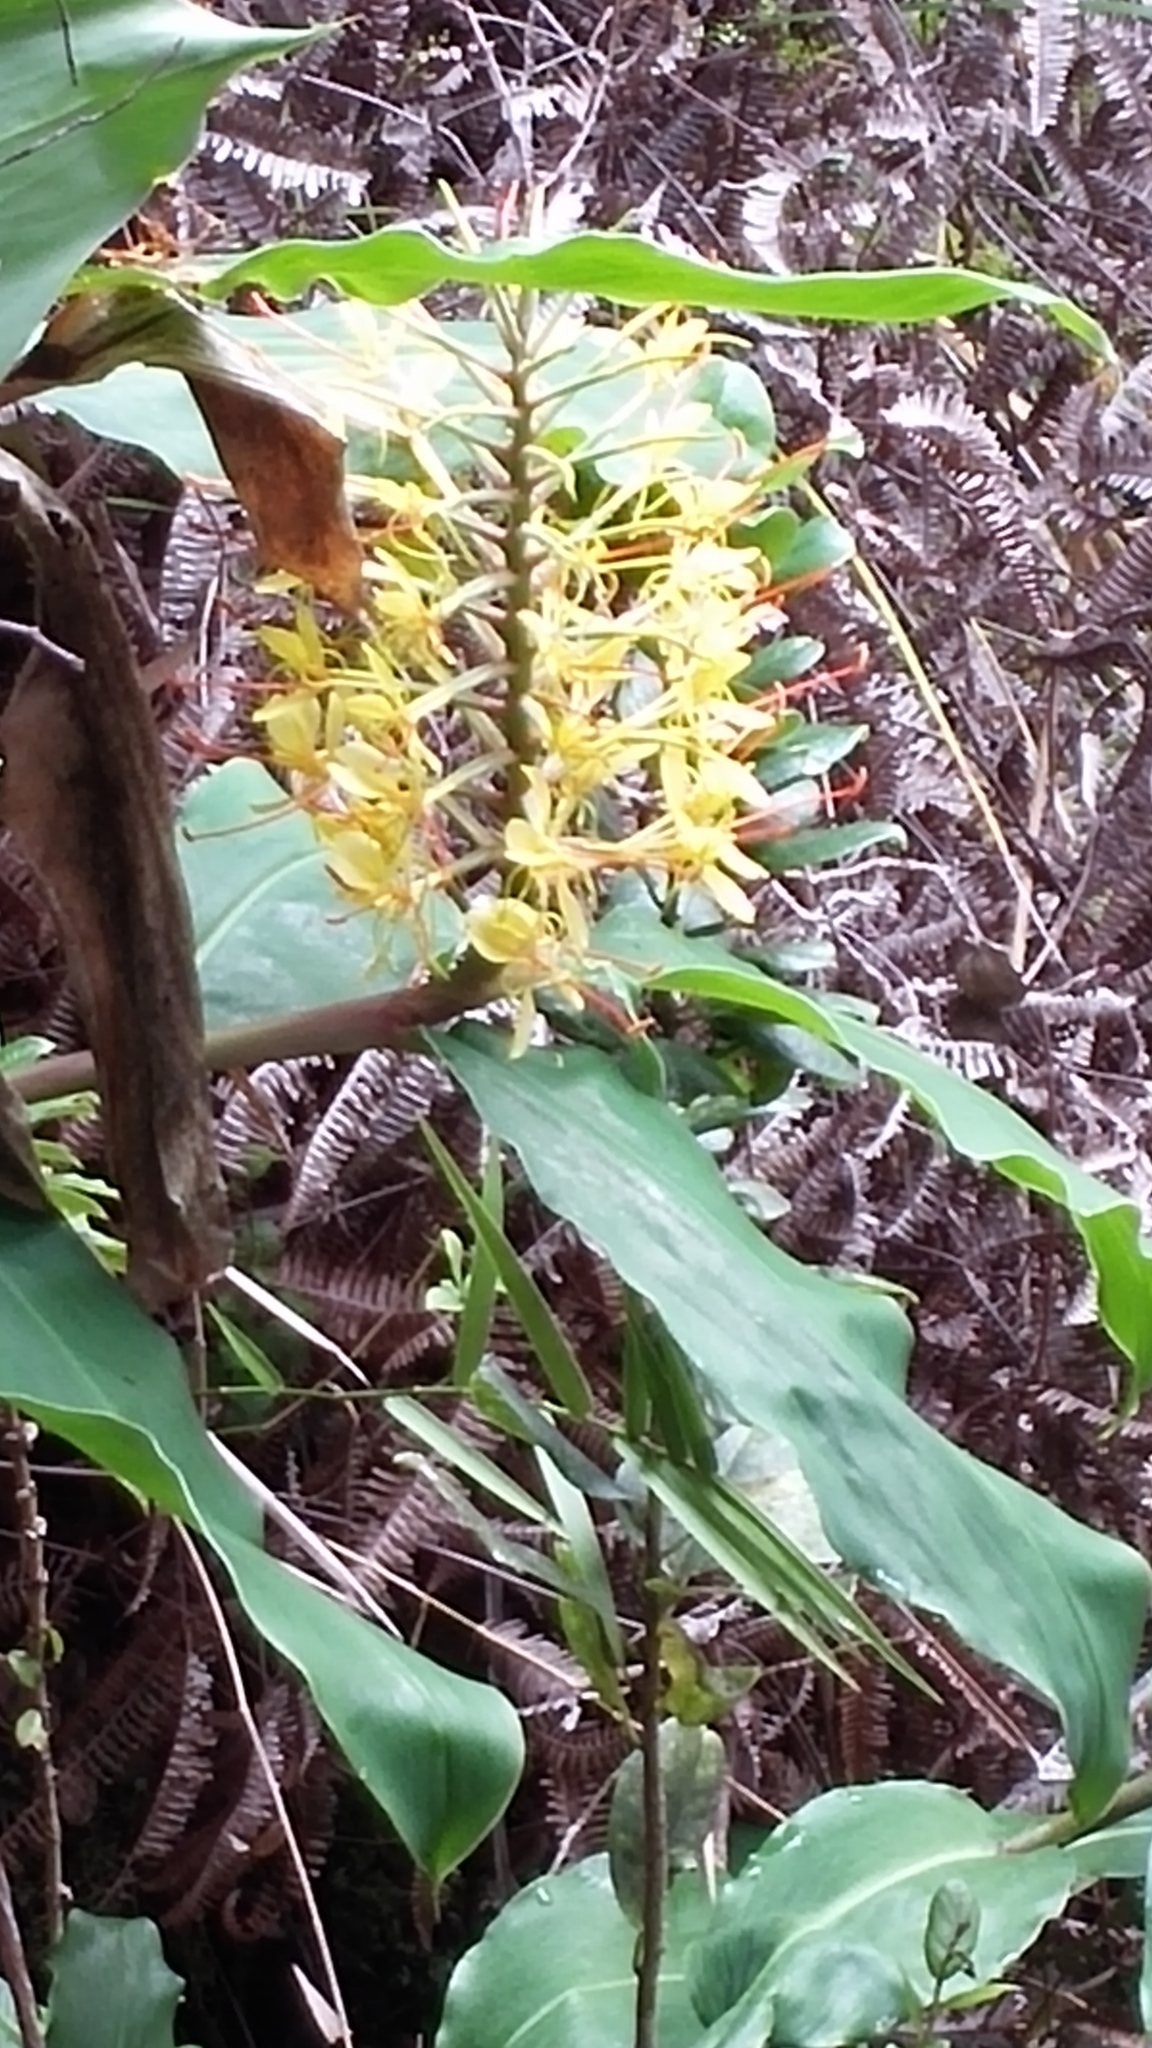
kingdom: Plantae
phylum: Tracheophyta
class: Liliopsida
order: Zingiberales
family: Zingiberaceae
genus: Hedychium
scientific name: Hedychium gardnerianum
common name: Himalayan ginger
